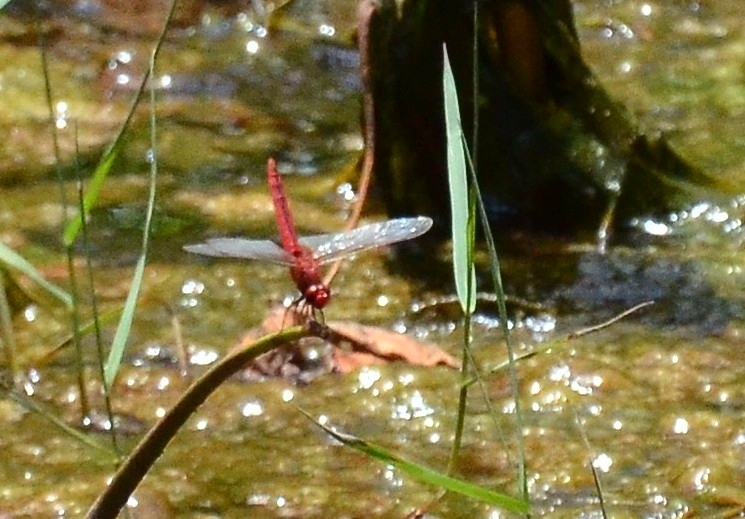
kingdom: Animalia
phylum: Arthropoda
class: Insecta
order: Odonata
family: Libellulidae
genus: Crocothemis
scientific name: Crocothemis servilia
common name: Scarlet skimmer
